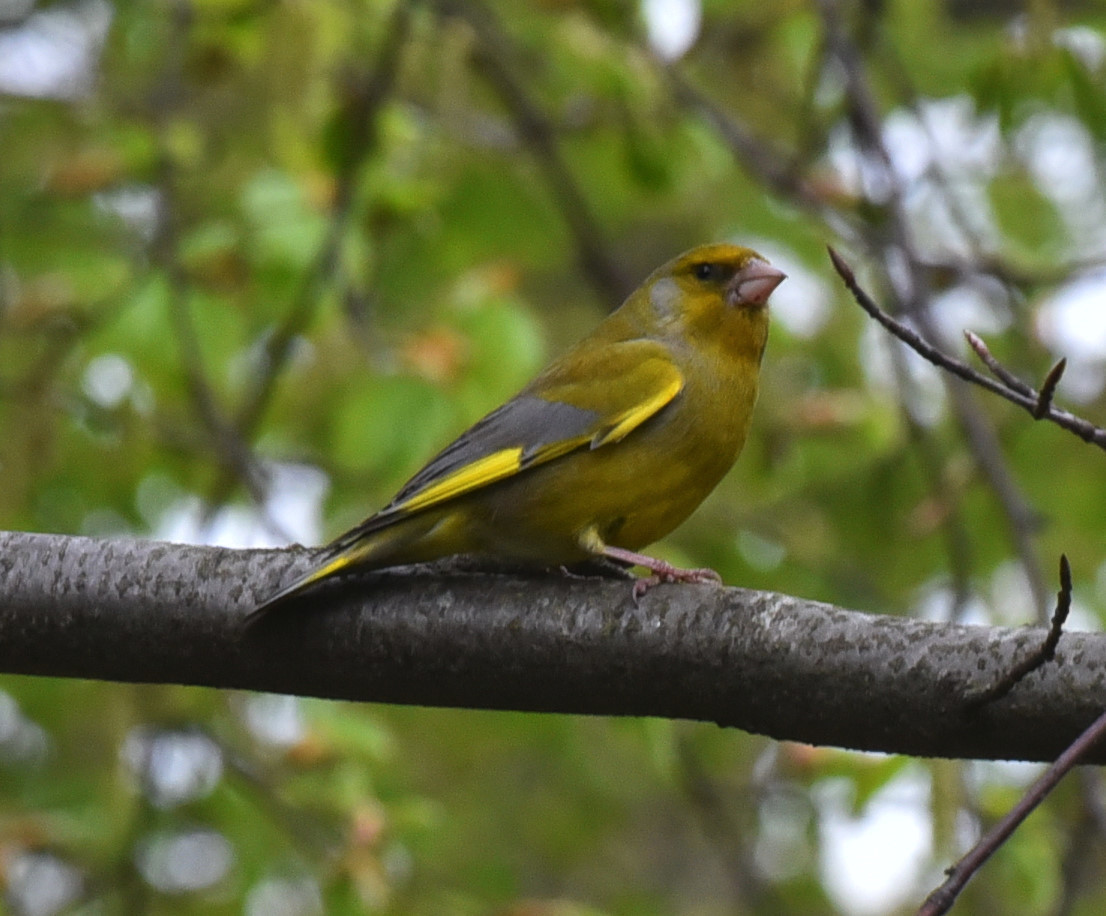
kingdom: Plantae
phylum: Tracheophyta
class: Liliopsida
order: Poales
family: Poaceae
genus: Chloris
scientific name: Chloris chloris
